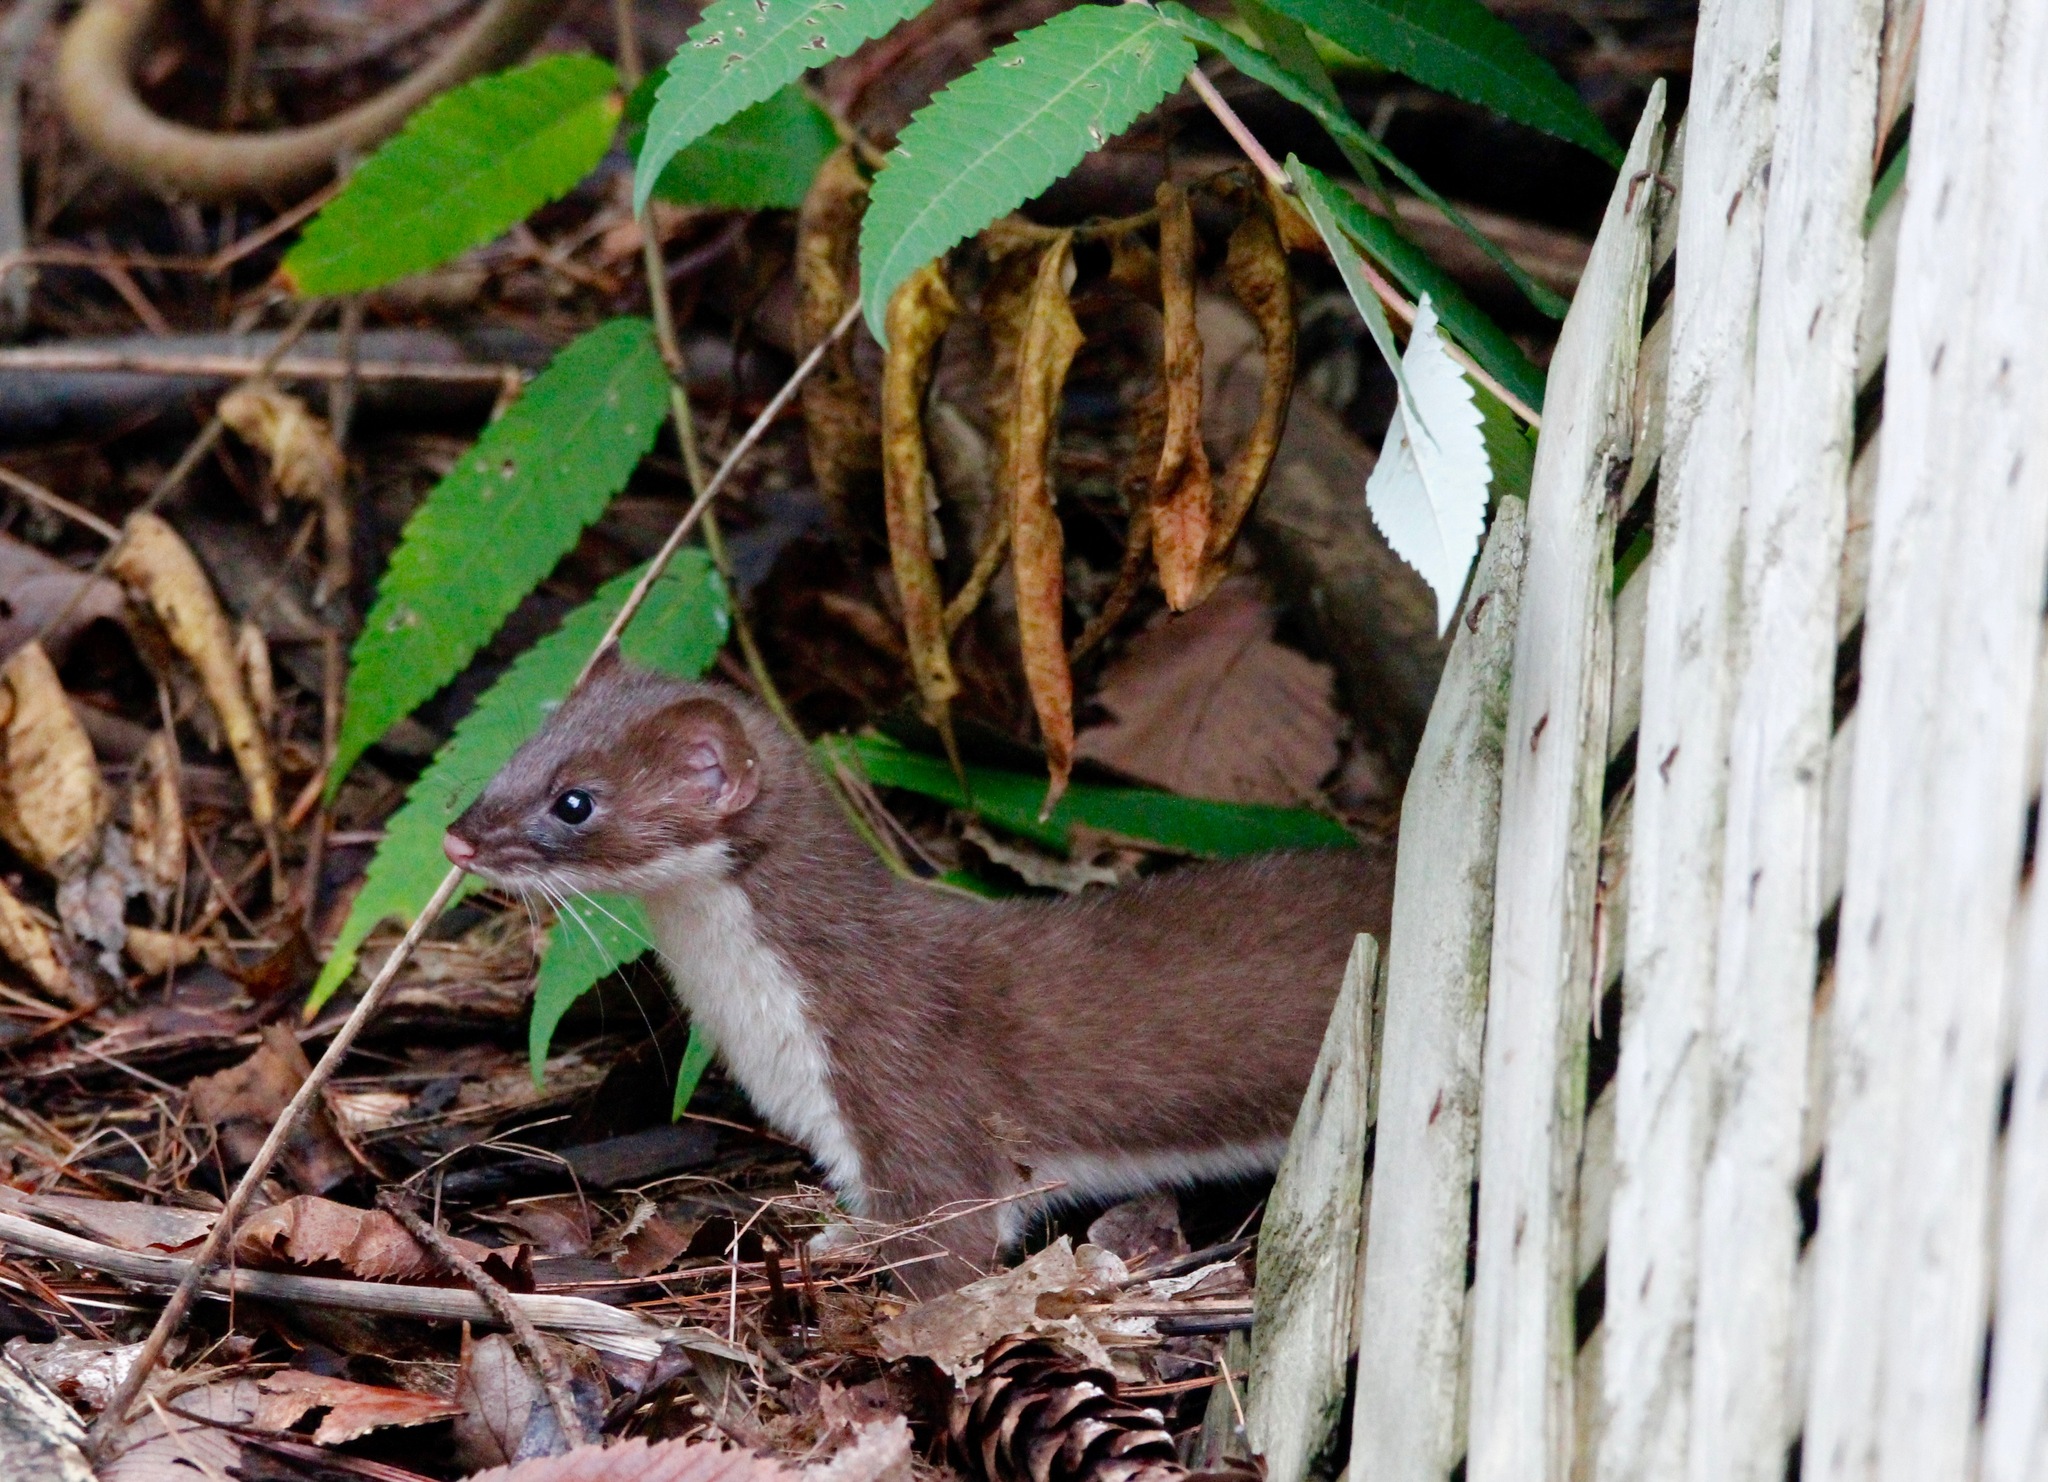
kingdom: Animalia
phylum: Chordata
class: Mammalia
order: Carnivora
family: Mustelidae
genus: Mustela
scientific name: Mustela erminea
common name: Stoat
